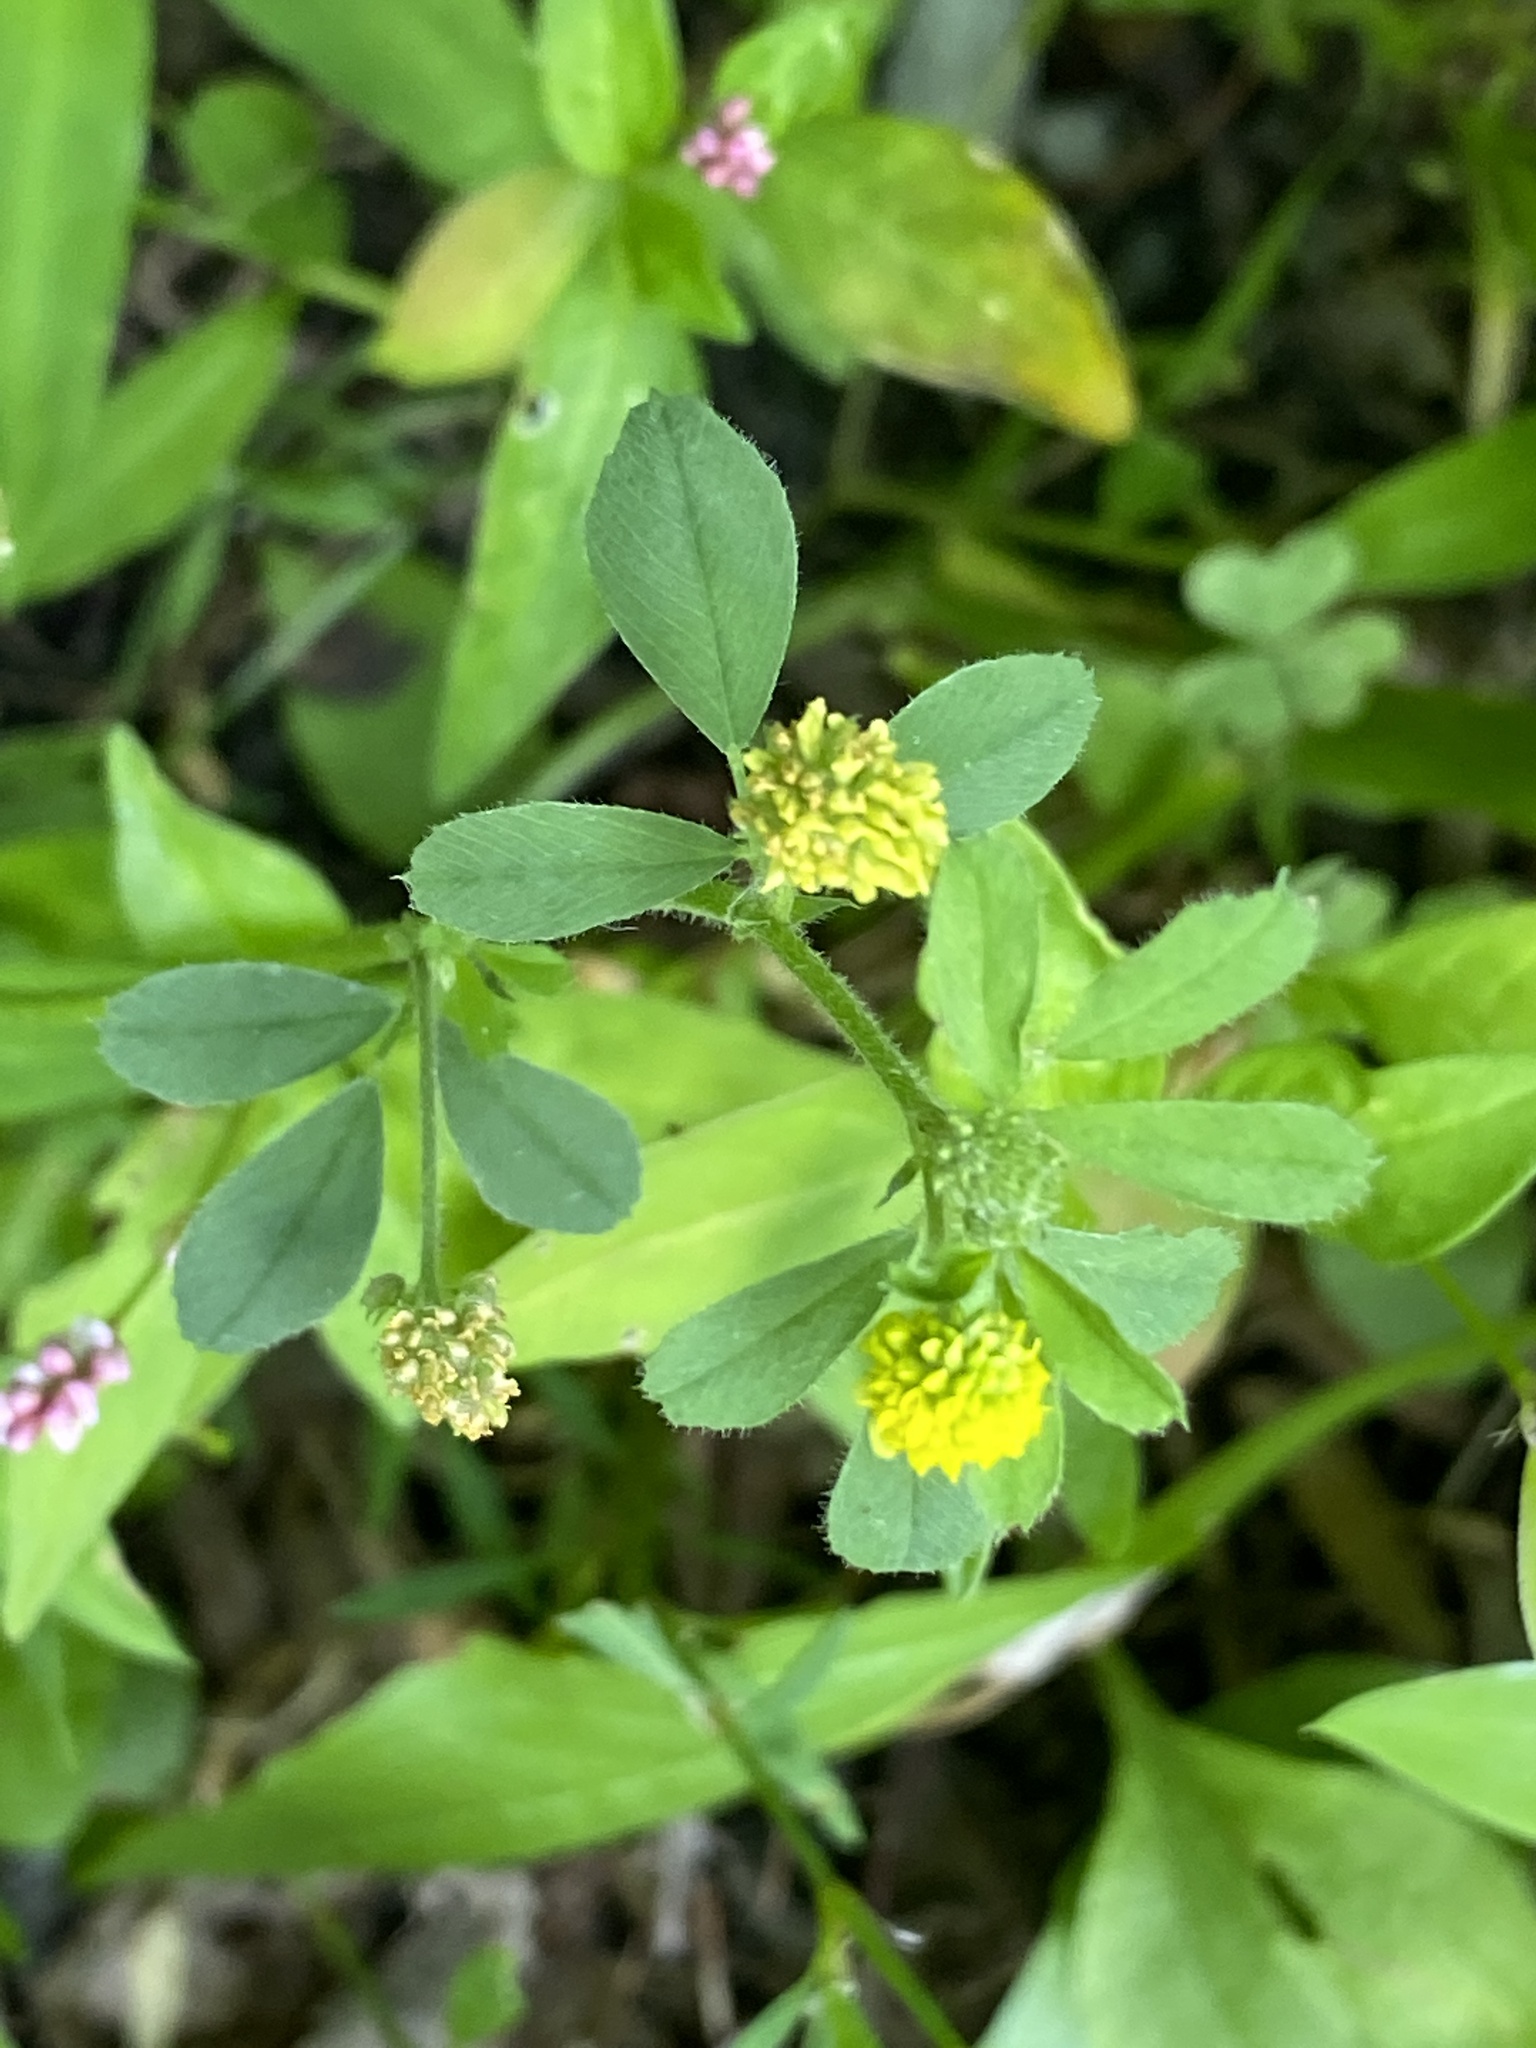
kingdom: Plantae
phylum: Tracheophyta
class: Magnoliopsida
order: Fabales
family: Fabaceae
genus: Medicago
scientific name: Medicago lupulina
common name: Black medick
